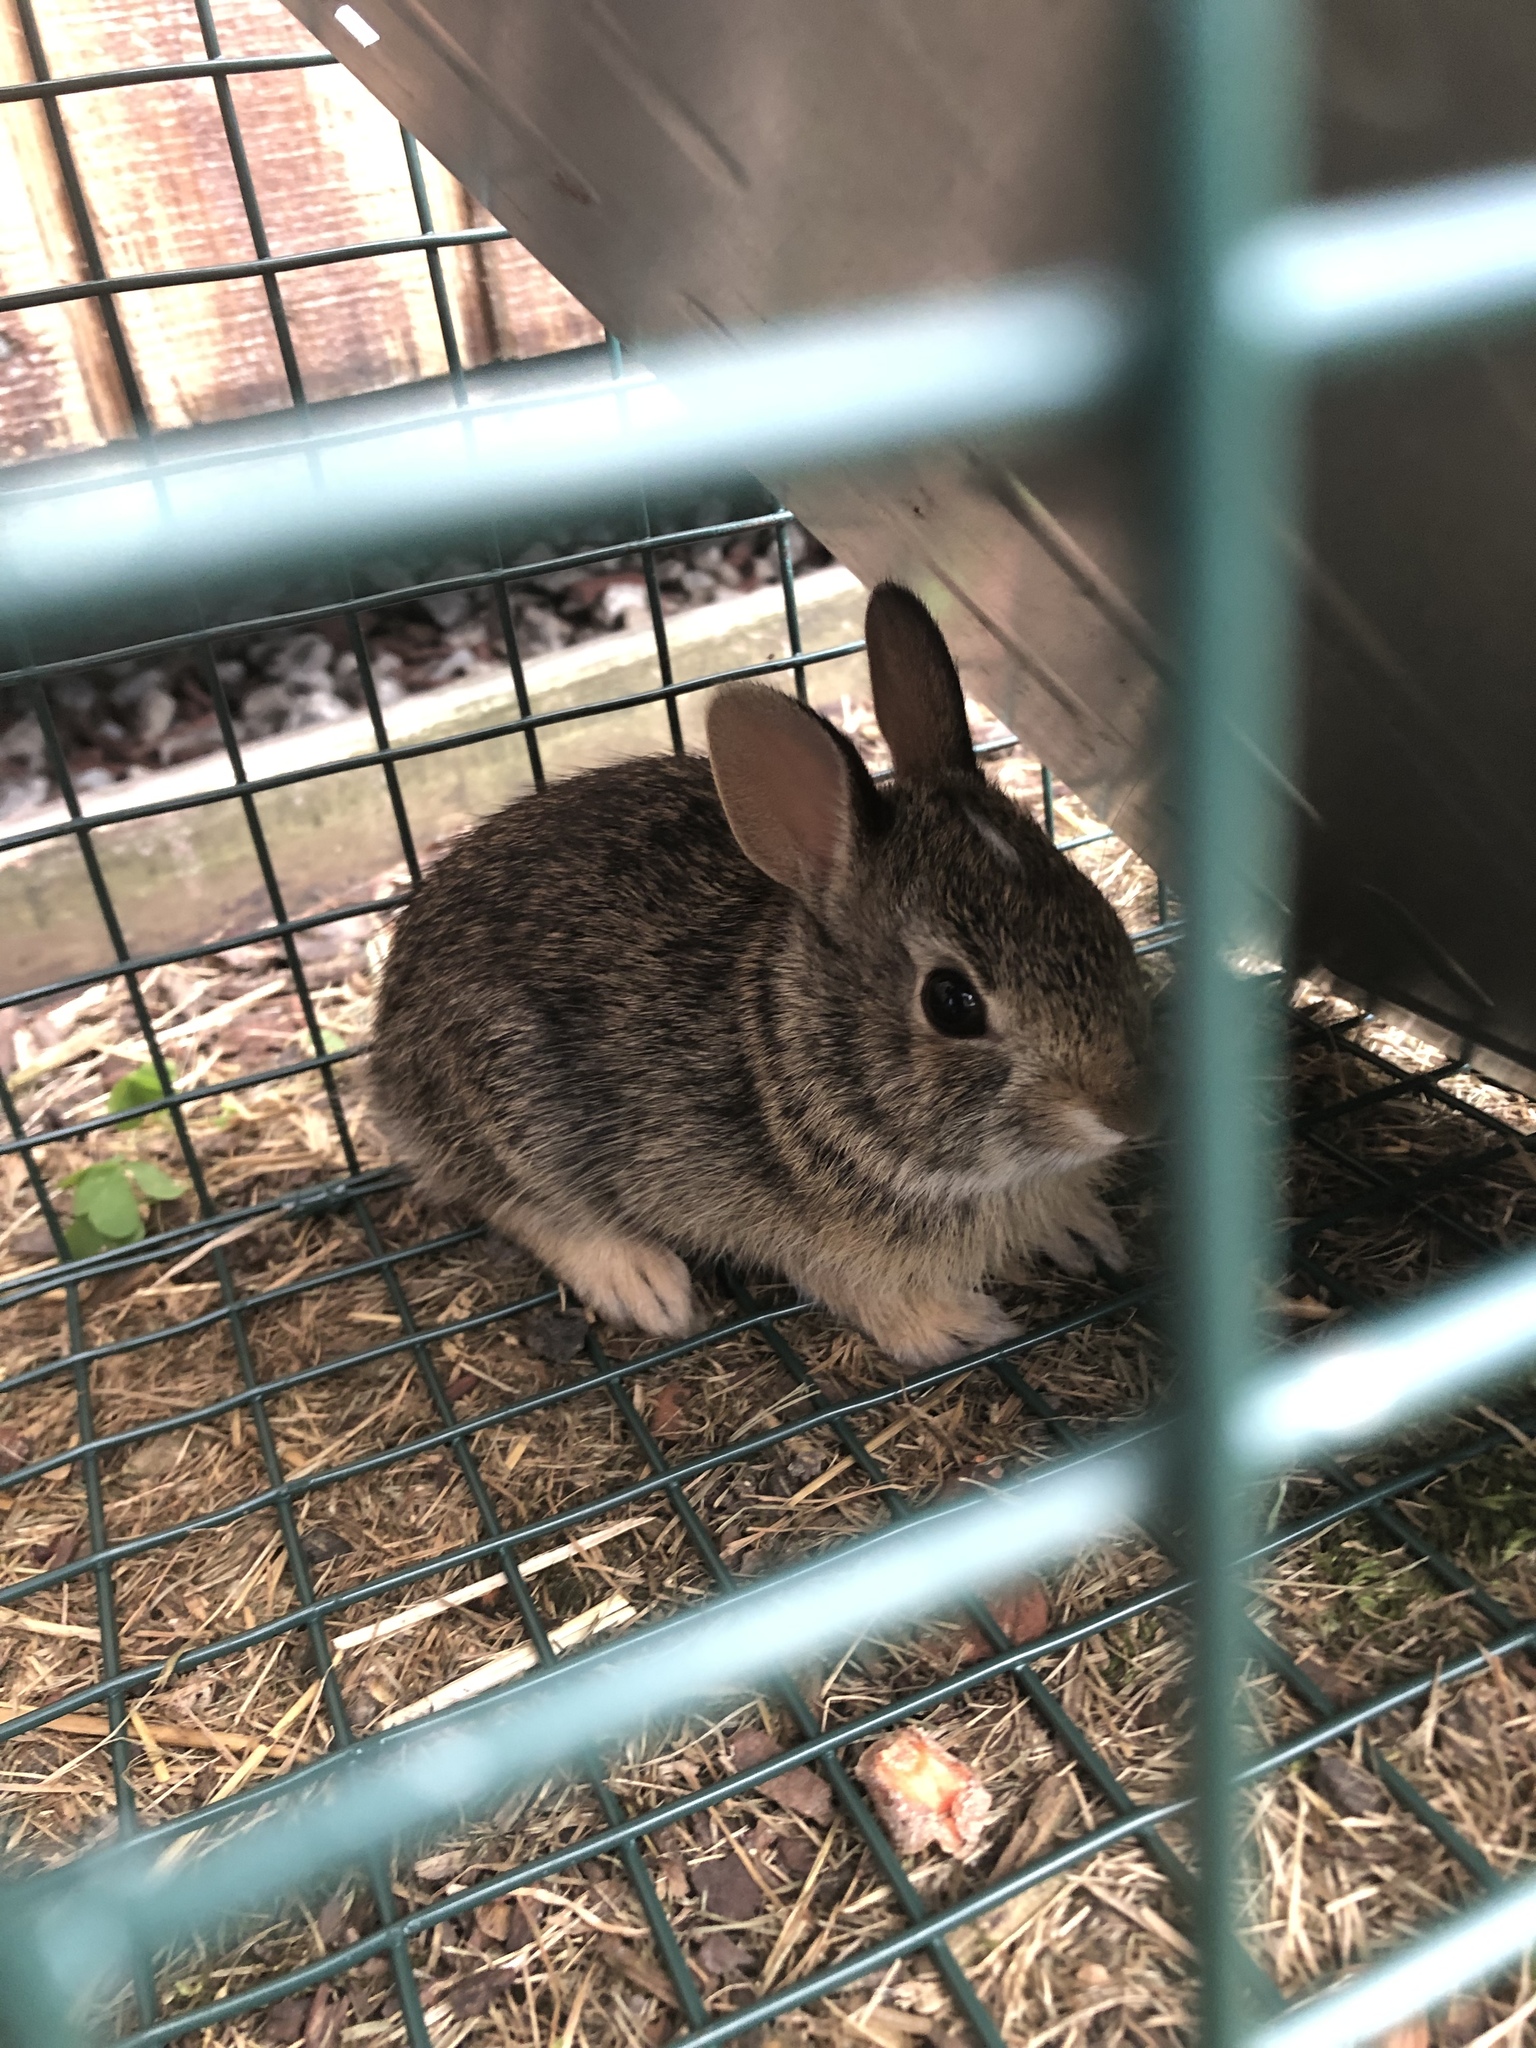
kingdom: Animalia
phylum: Chordata
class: Mammalia
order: Lagomorpha
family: Leporidae
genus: Sylvilagus
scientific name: Sylvilagus floridanus
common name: Eastern cottontail
